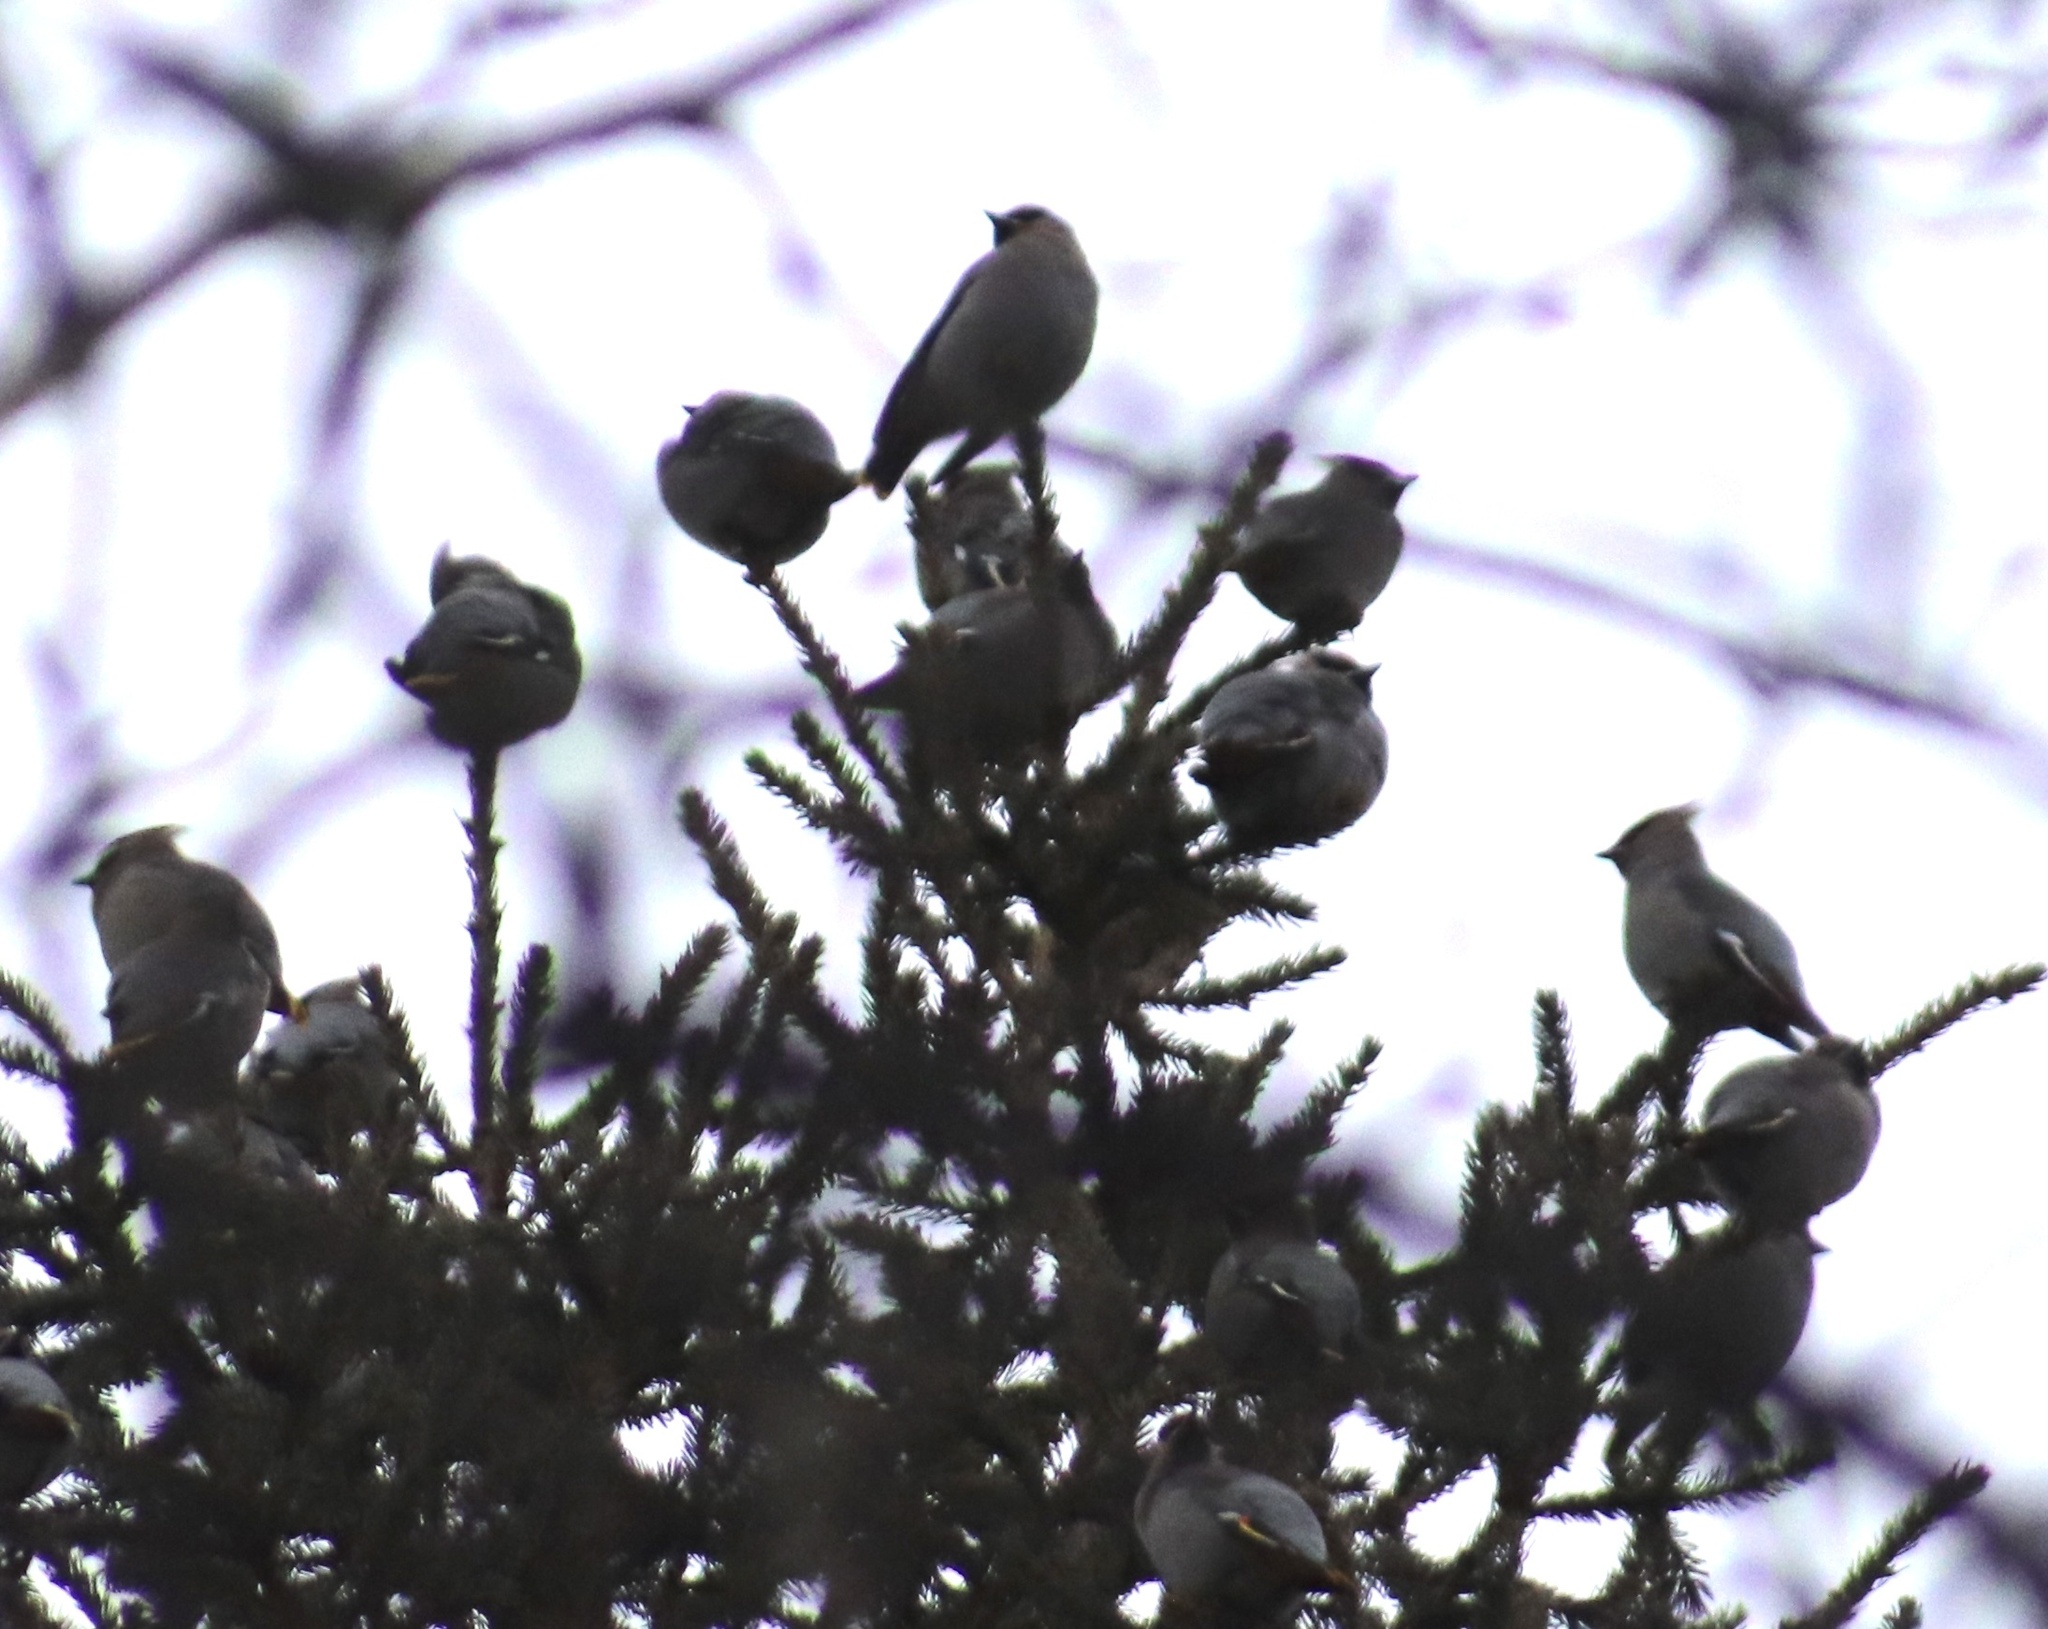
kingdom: Animalia
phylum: Chordata
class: Aves
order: Passeriformes
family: Bombycillidae
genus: Bombycilla
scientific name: Bombycilla garrulus
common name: Bohemian waxwing
